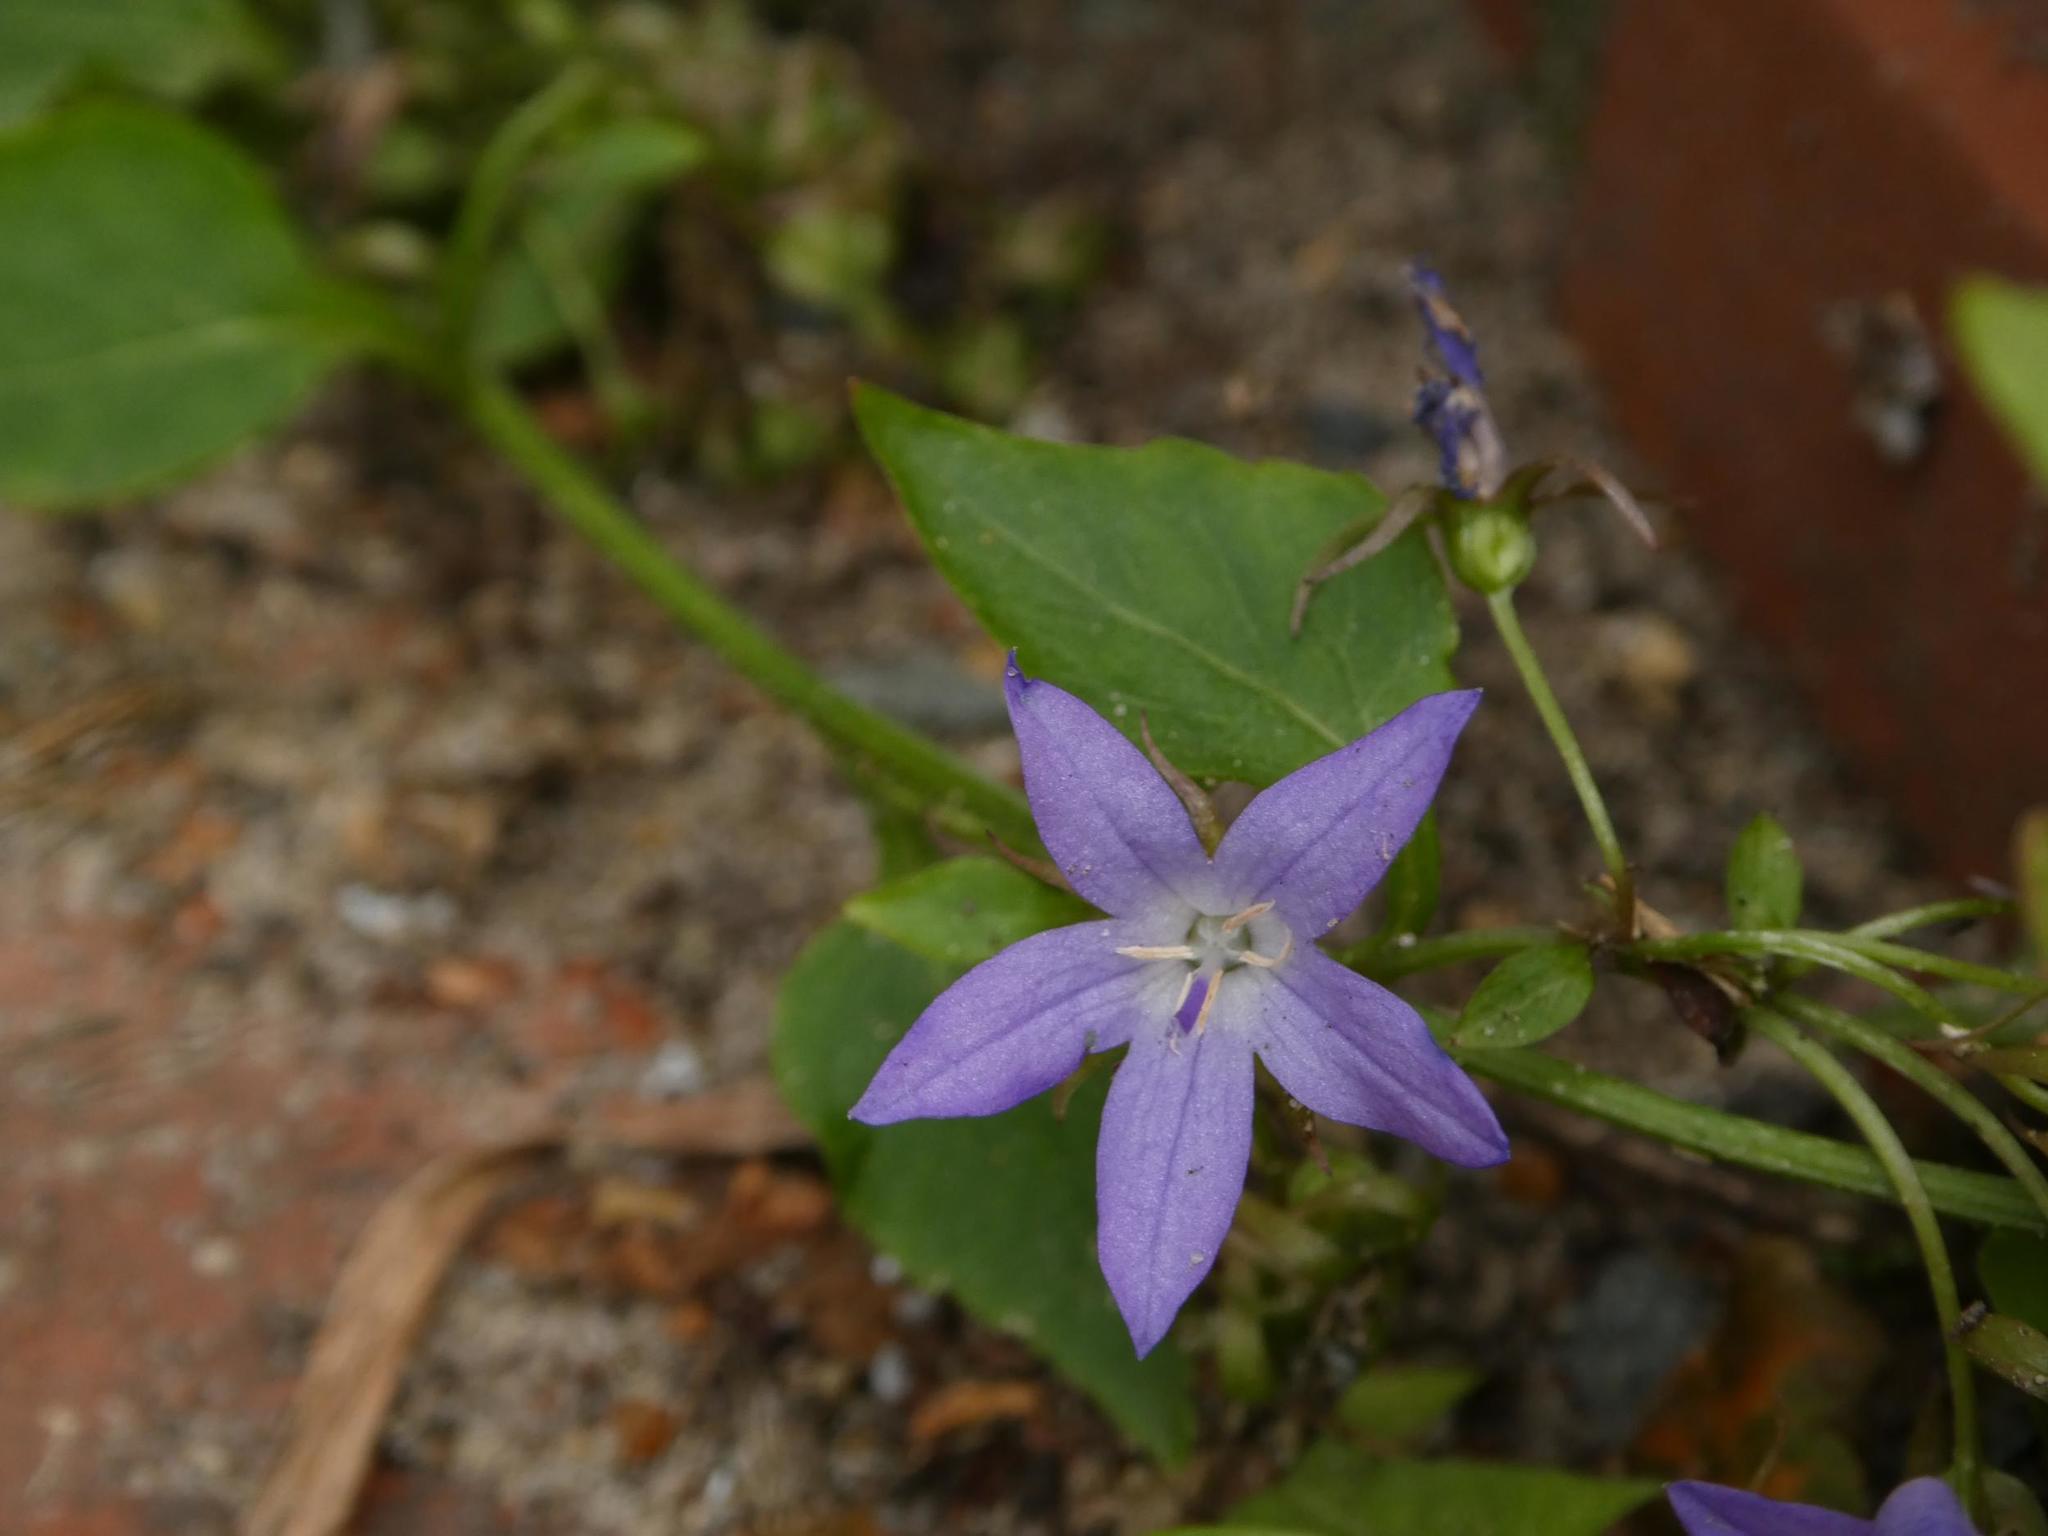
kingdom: Plantae
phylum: Tracheophyta
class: Magnoliopsida
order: Asterales
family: Campanulaceae
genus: Campanula
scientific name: Campanula poscharskyana
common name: Trailing bellflower
